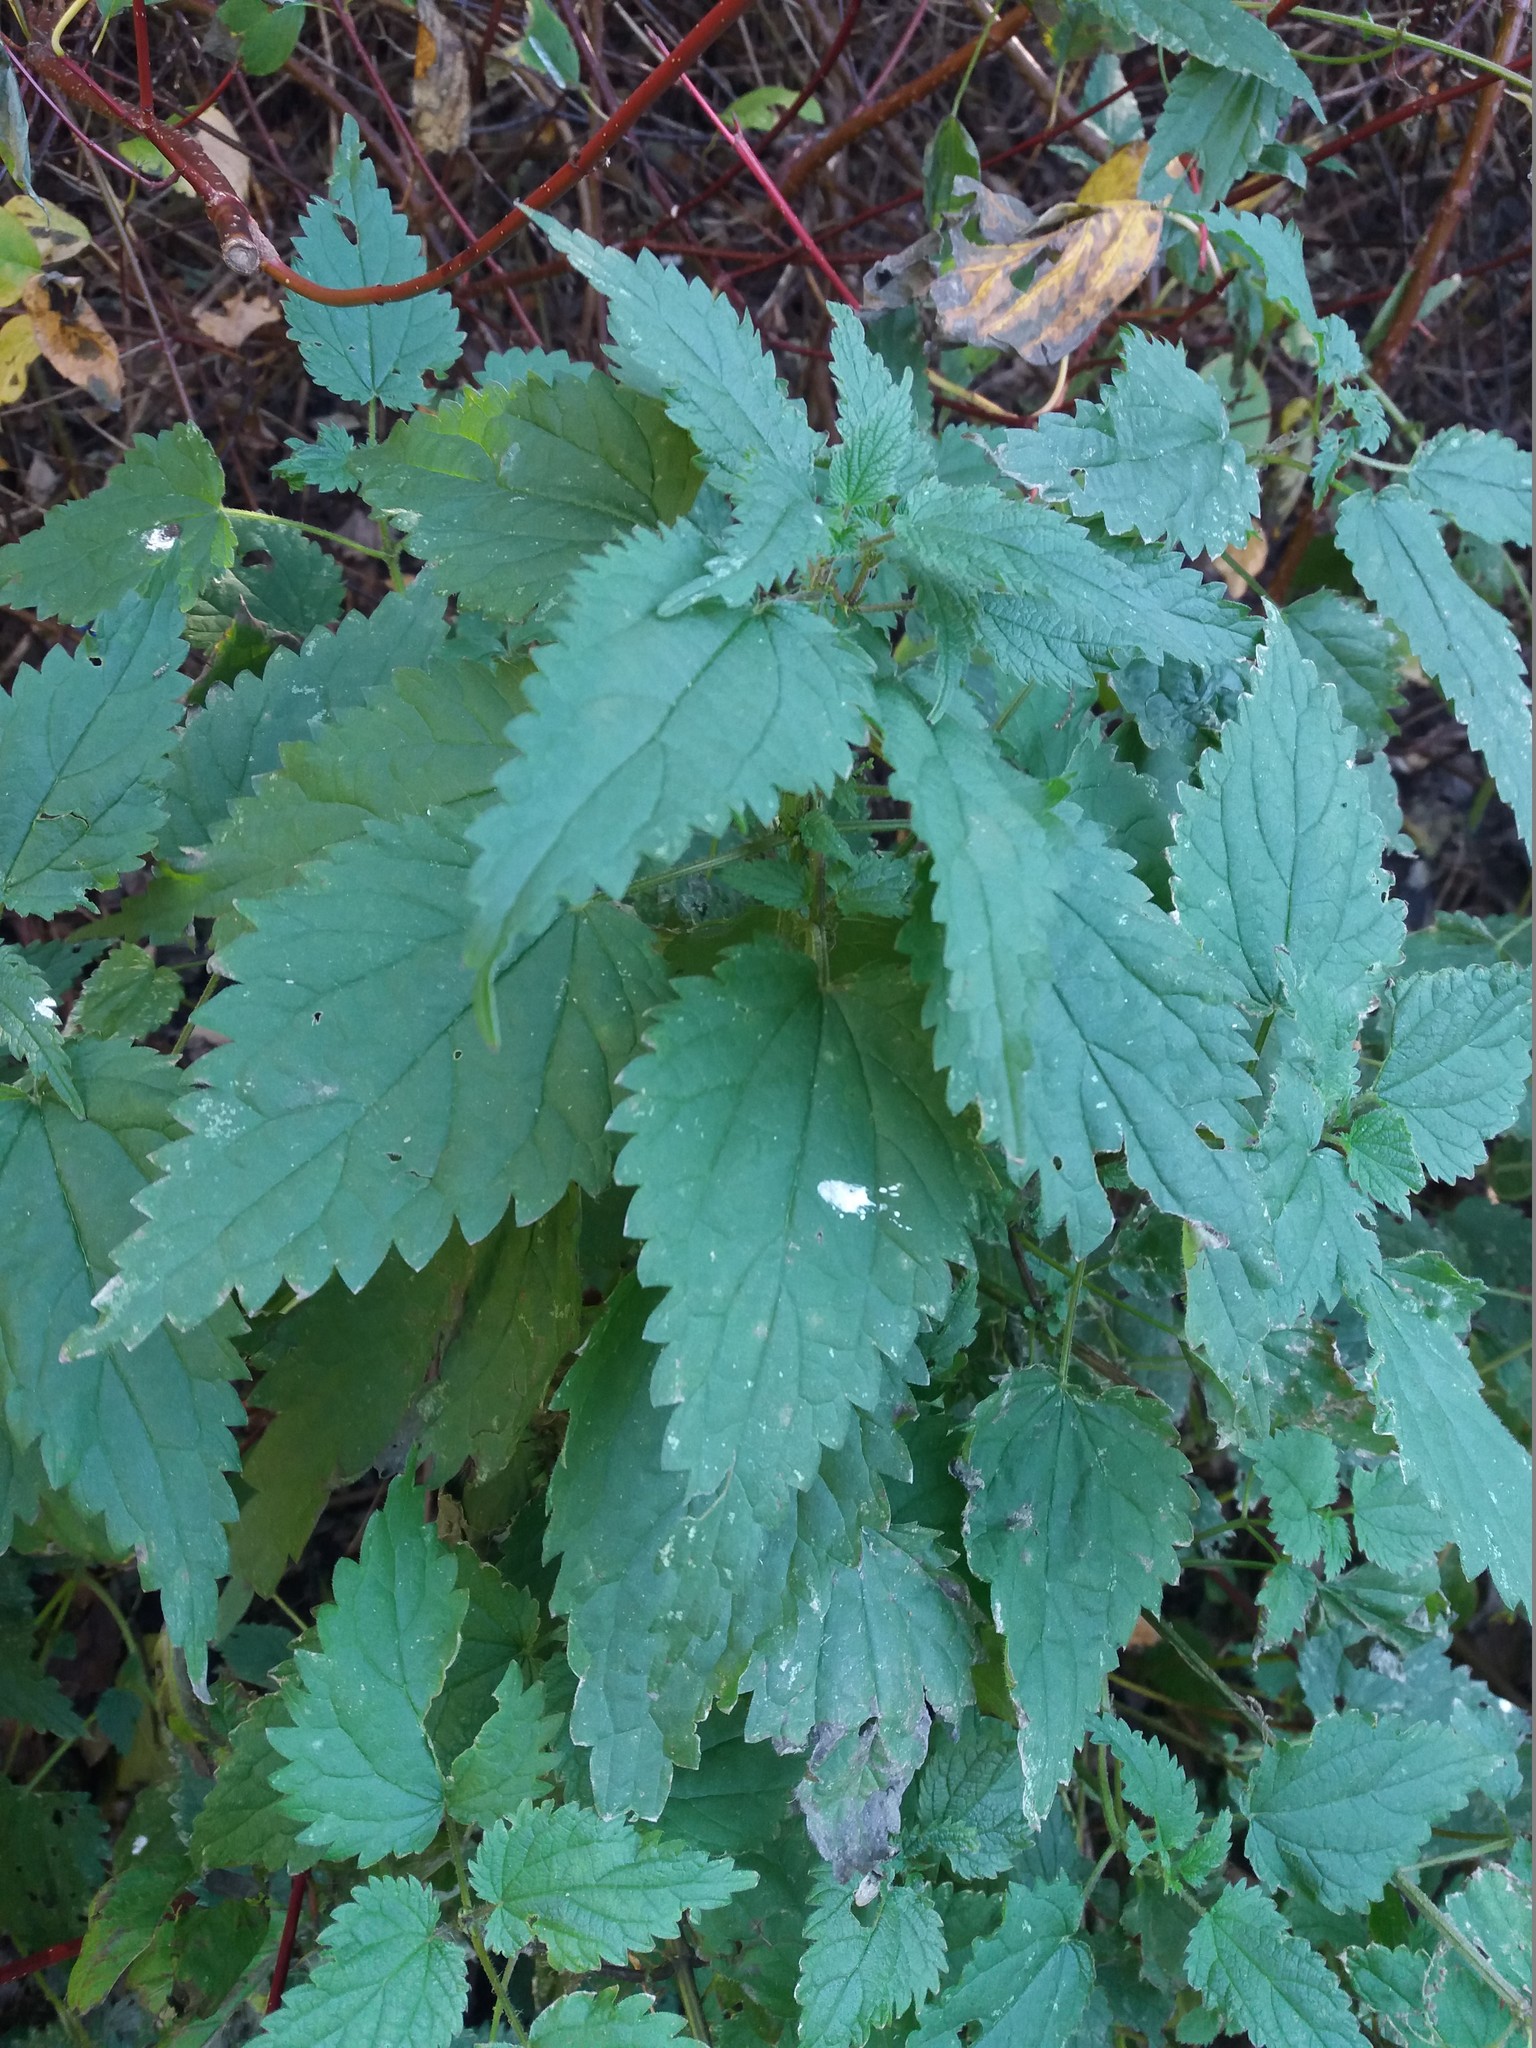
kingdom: Plantae
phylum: Tracheophyta
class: Magnoliopsida
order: Rosales
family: Urticaceae
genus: Urtica
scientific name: Urtica dioica
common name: Common nettle
